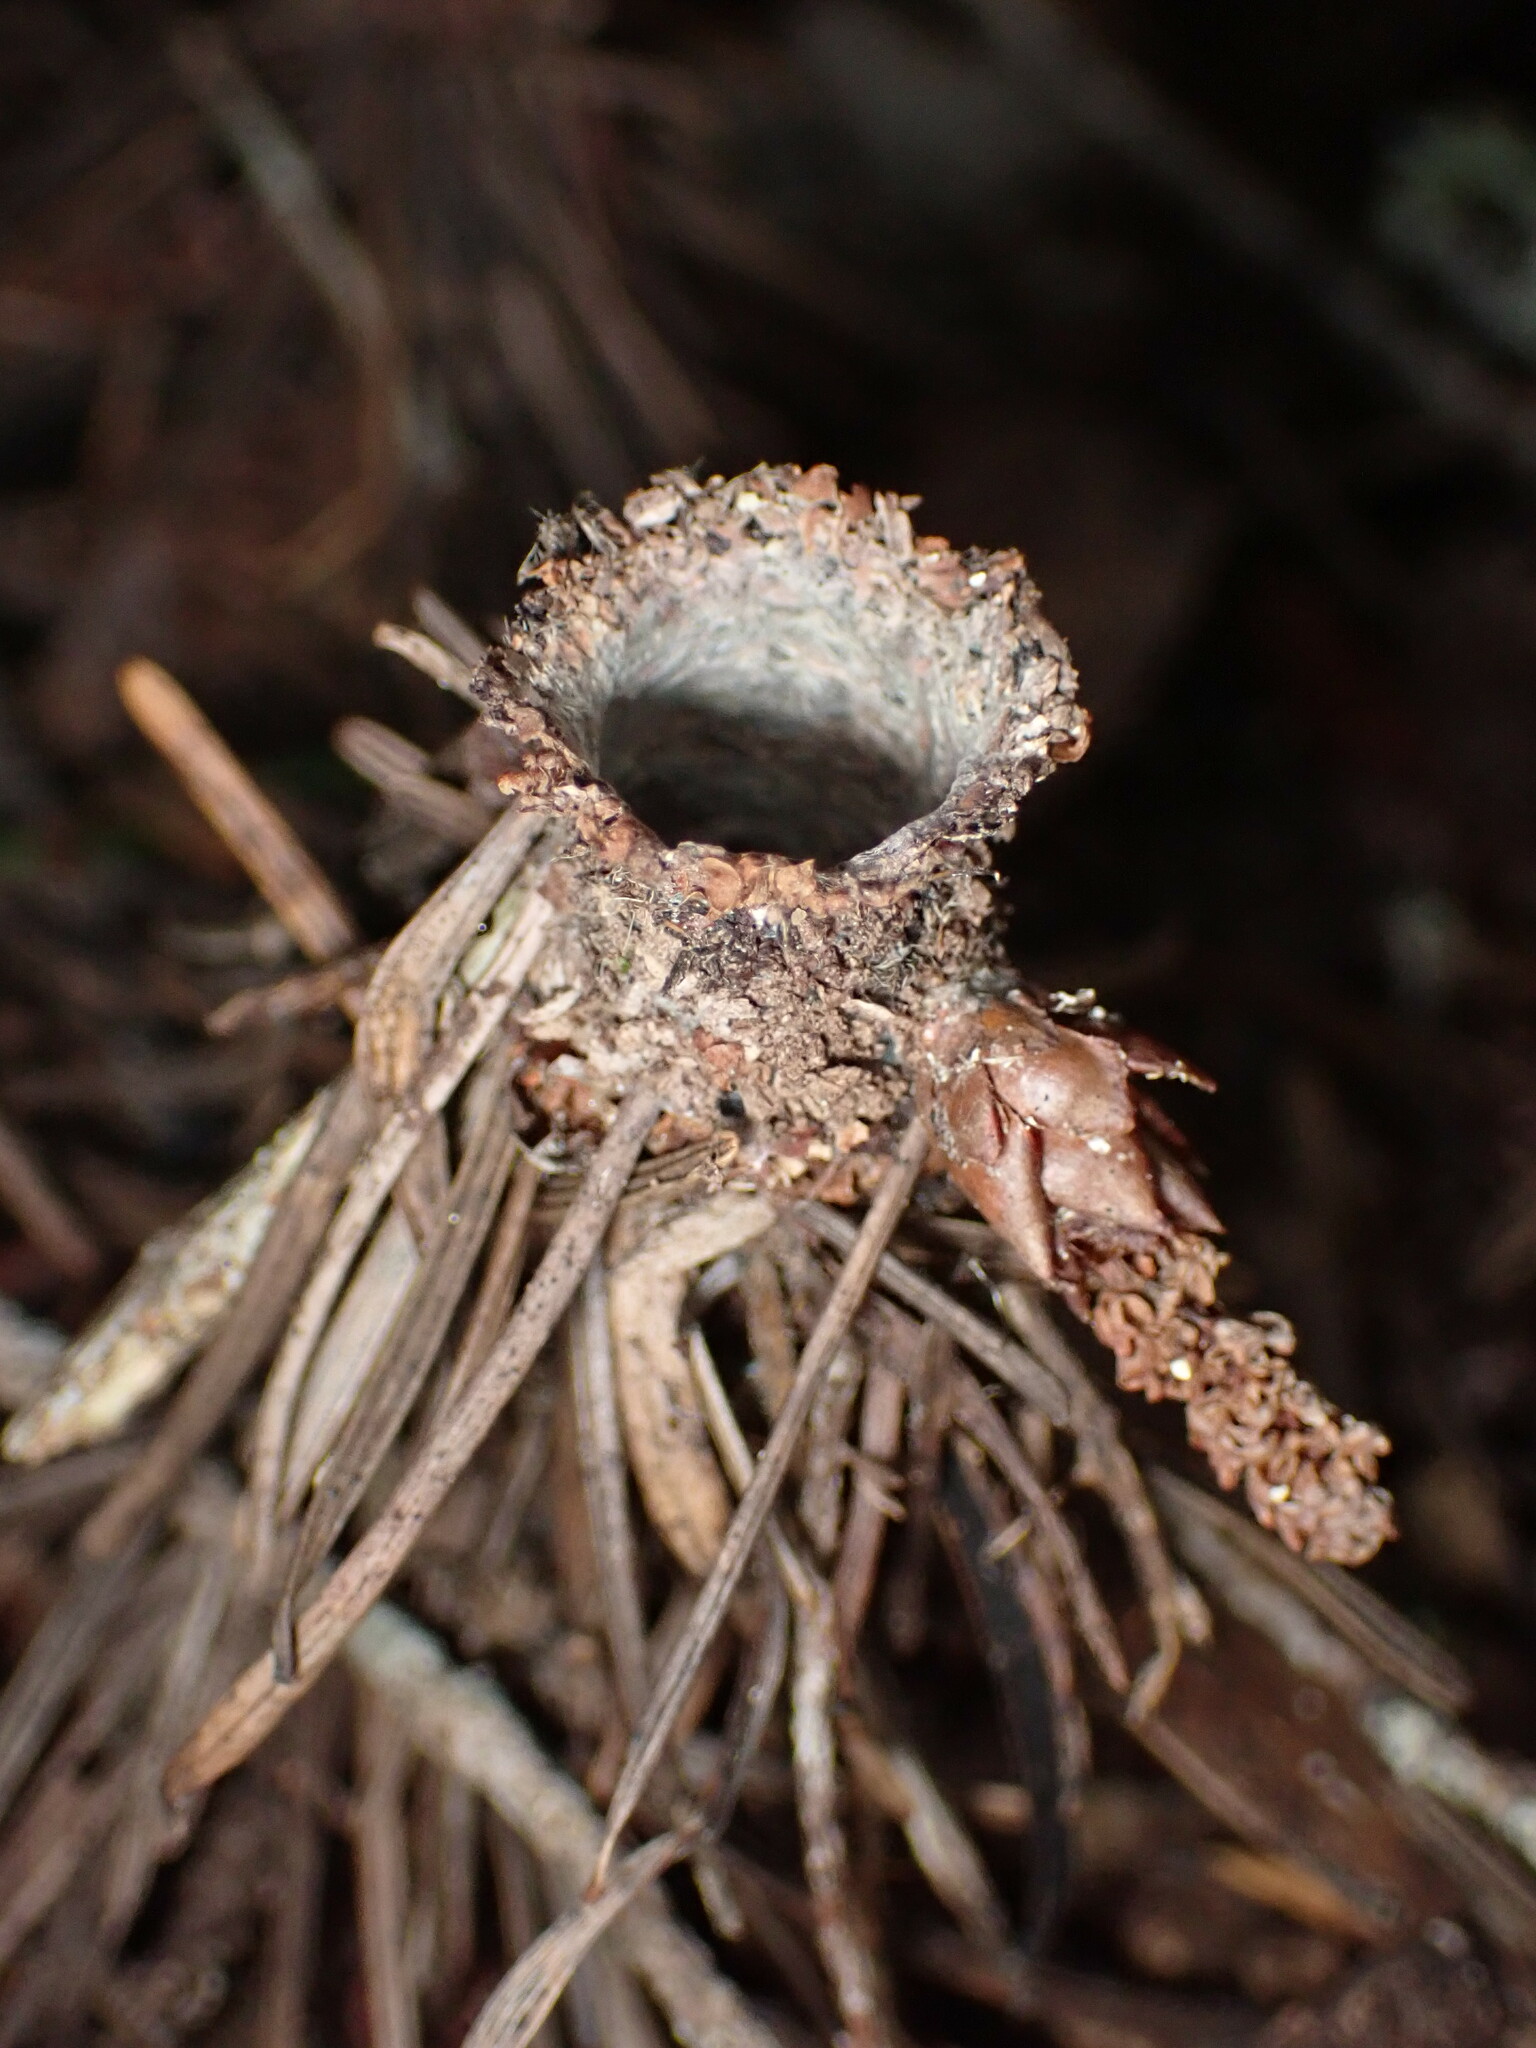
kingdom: Animalia
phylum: Arthropoda
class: Arachnida
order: Araneae
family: Antrodiaetidae
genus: Atypoides
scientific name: Atypoides riversi
